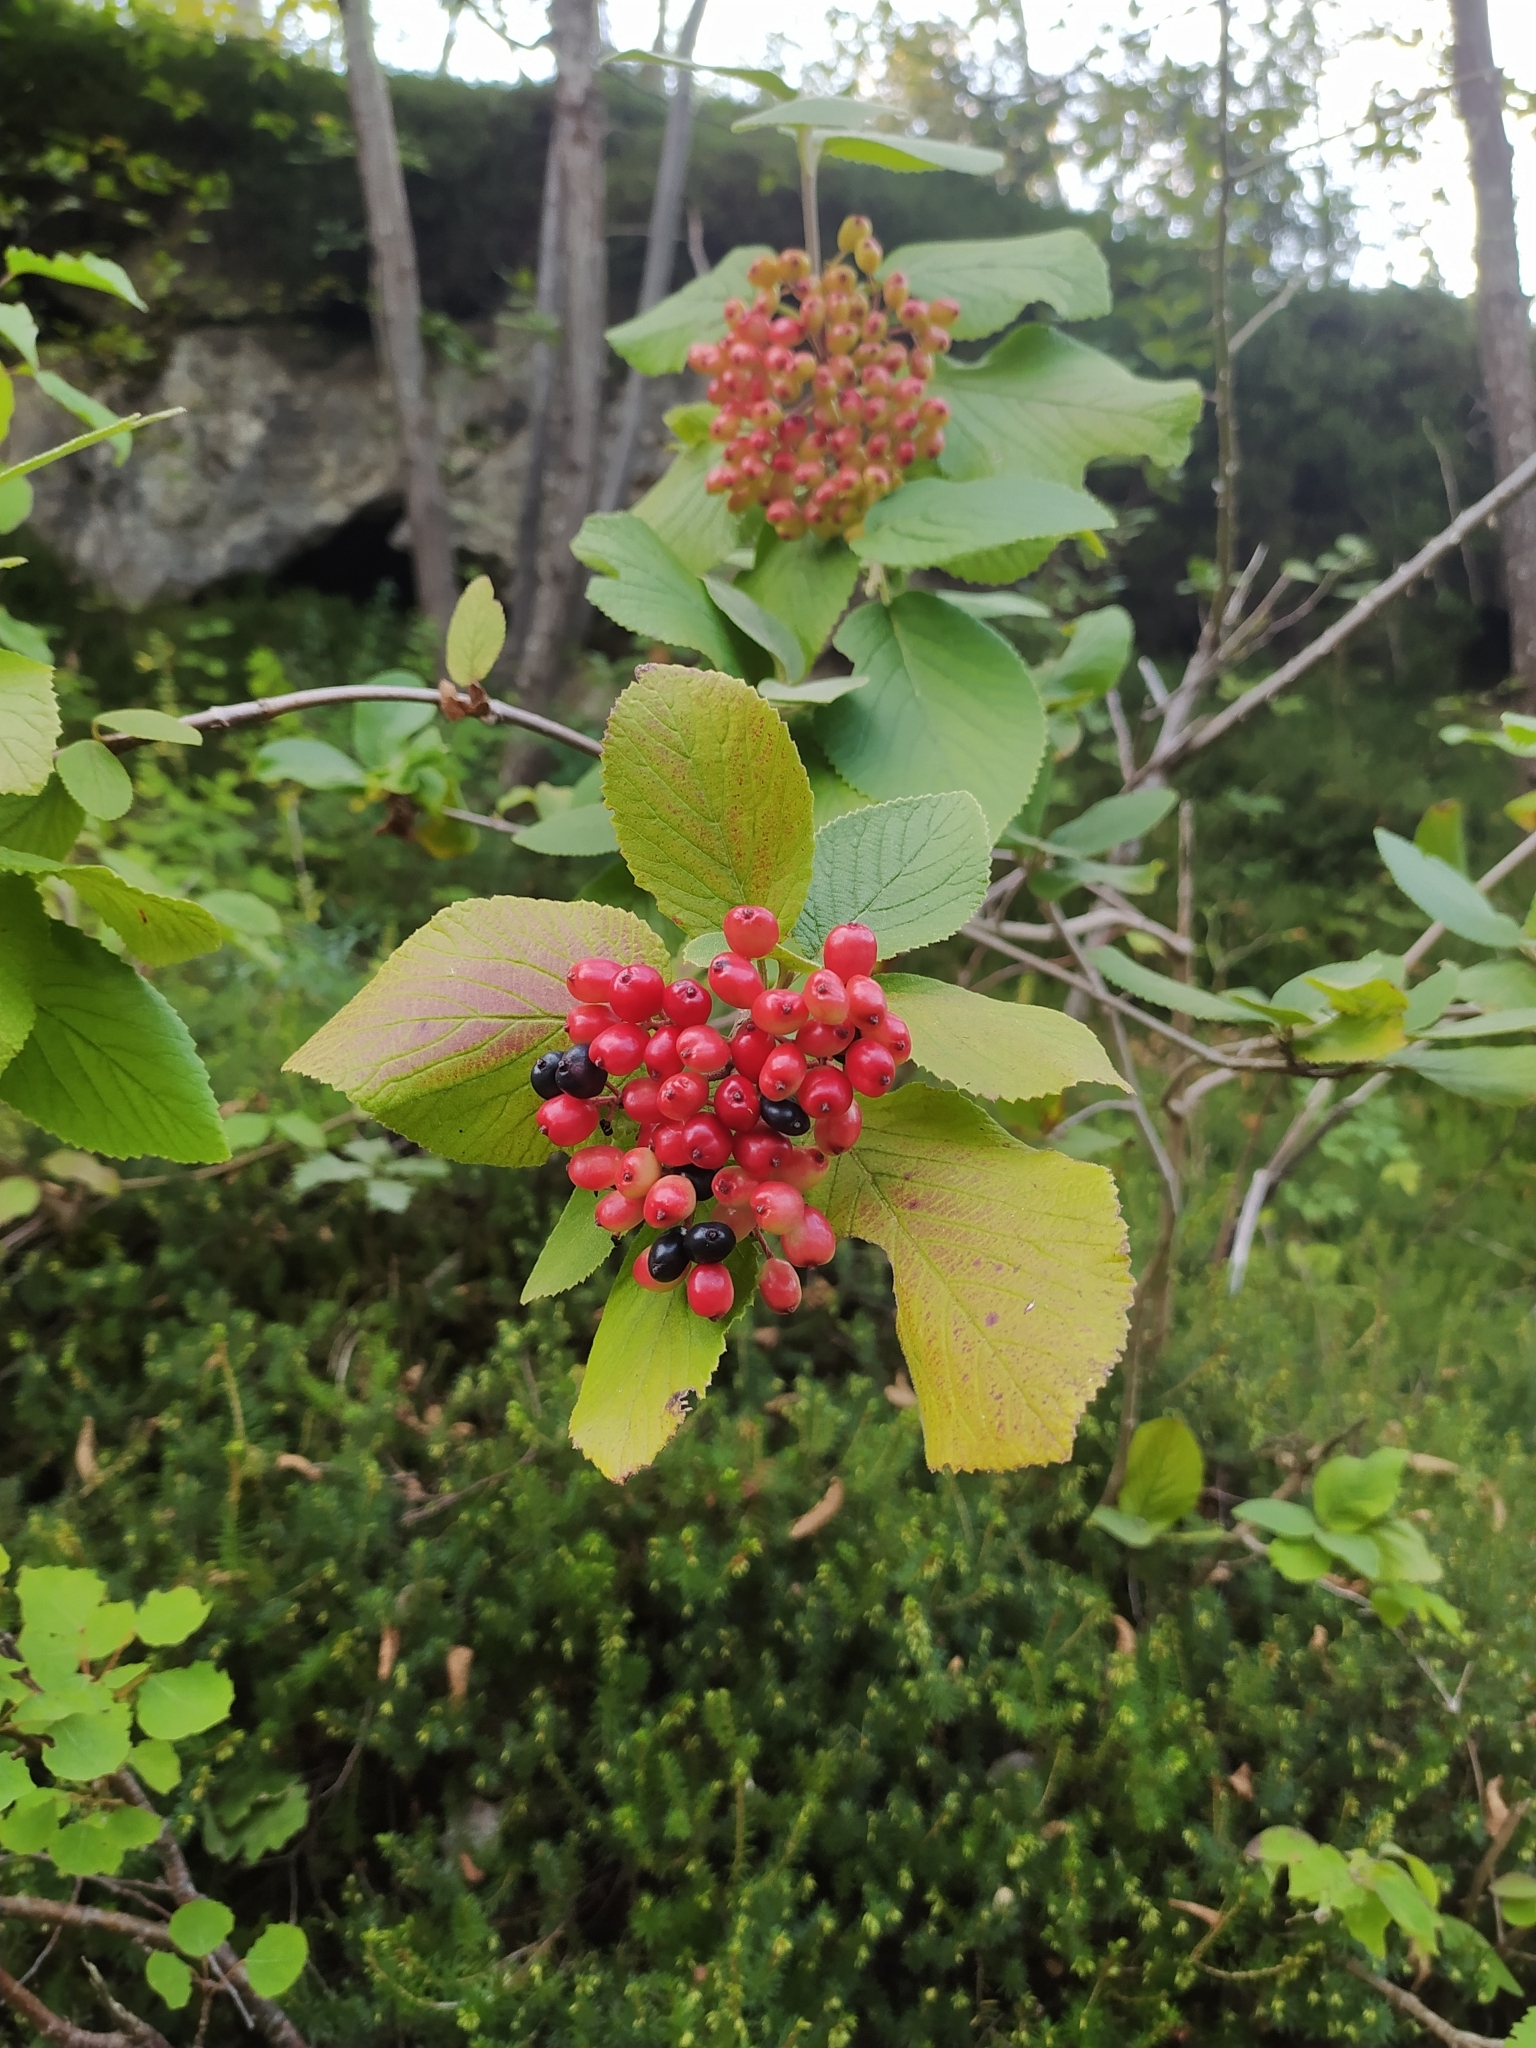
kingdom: Plantae
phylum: Tracheophyta
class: Magnoliopsida
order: Dipsacales
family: Viburnaceae
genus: Viburnum
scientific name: Viburnum lantana
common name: Wayfaring tree
